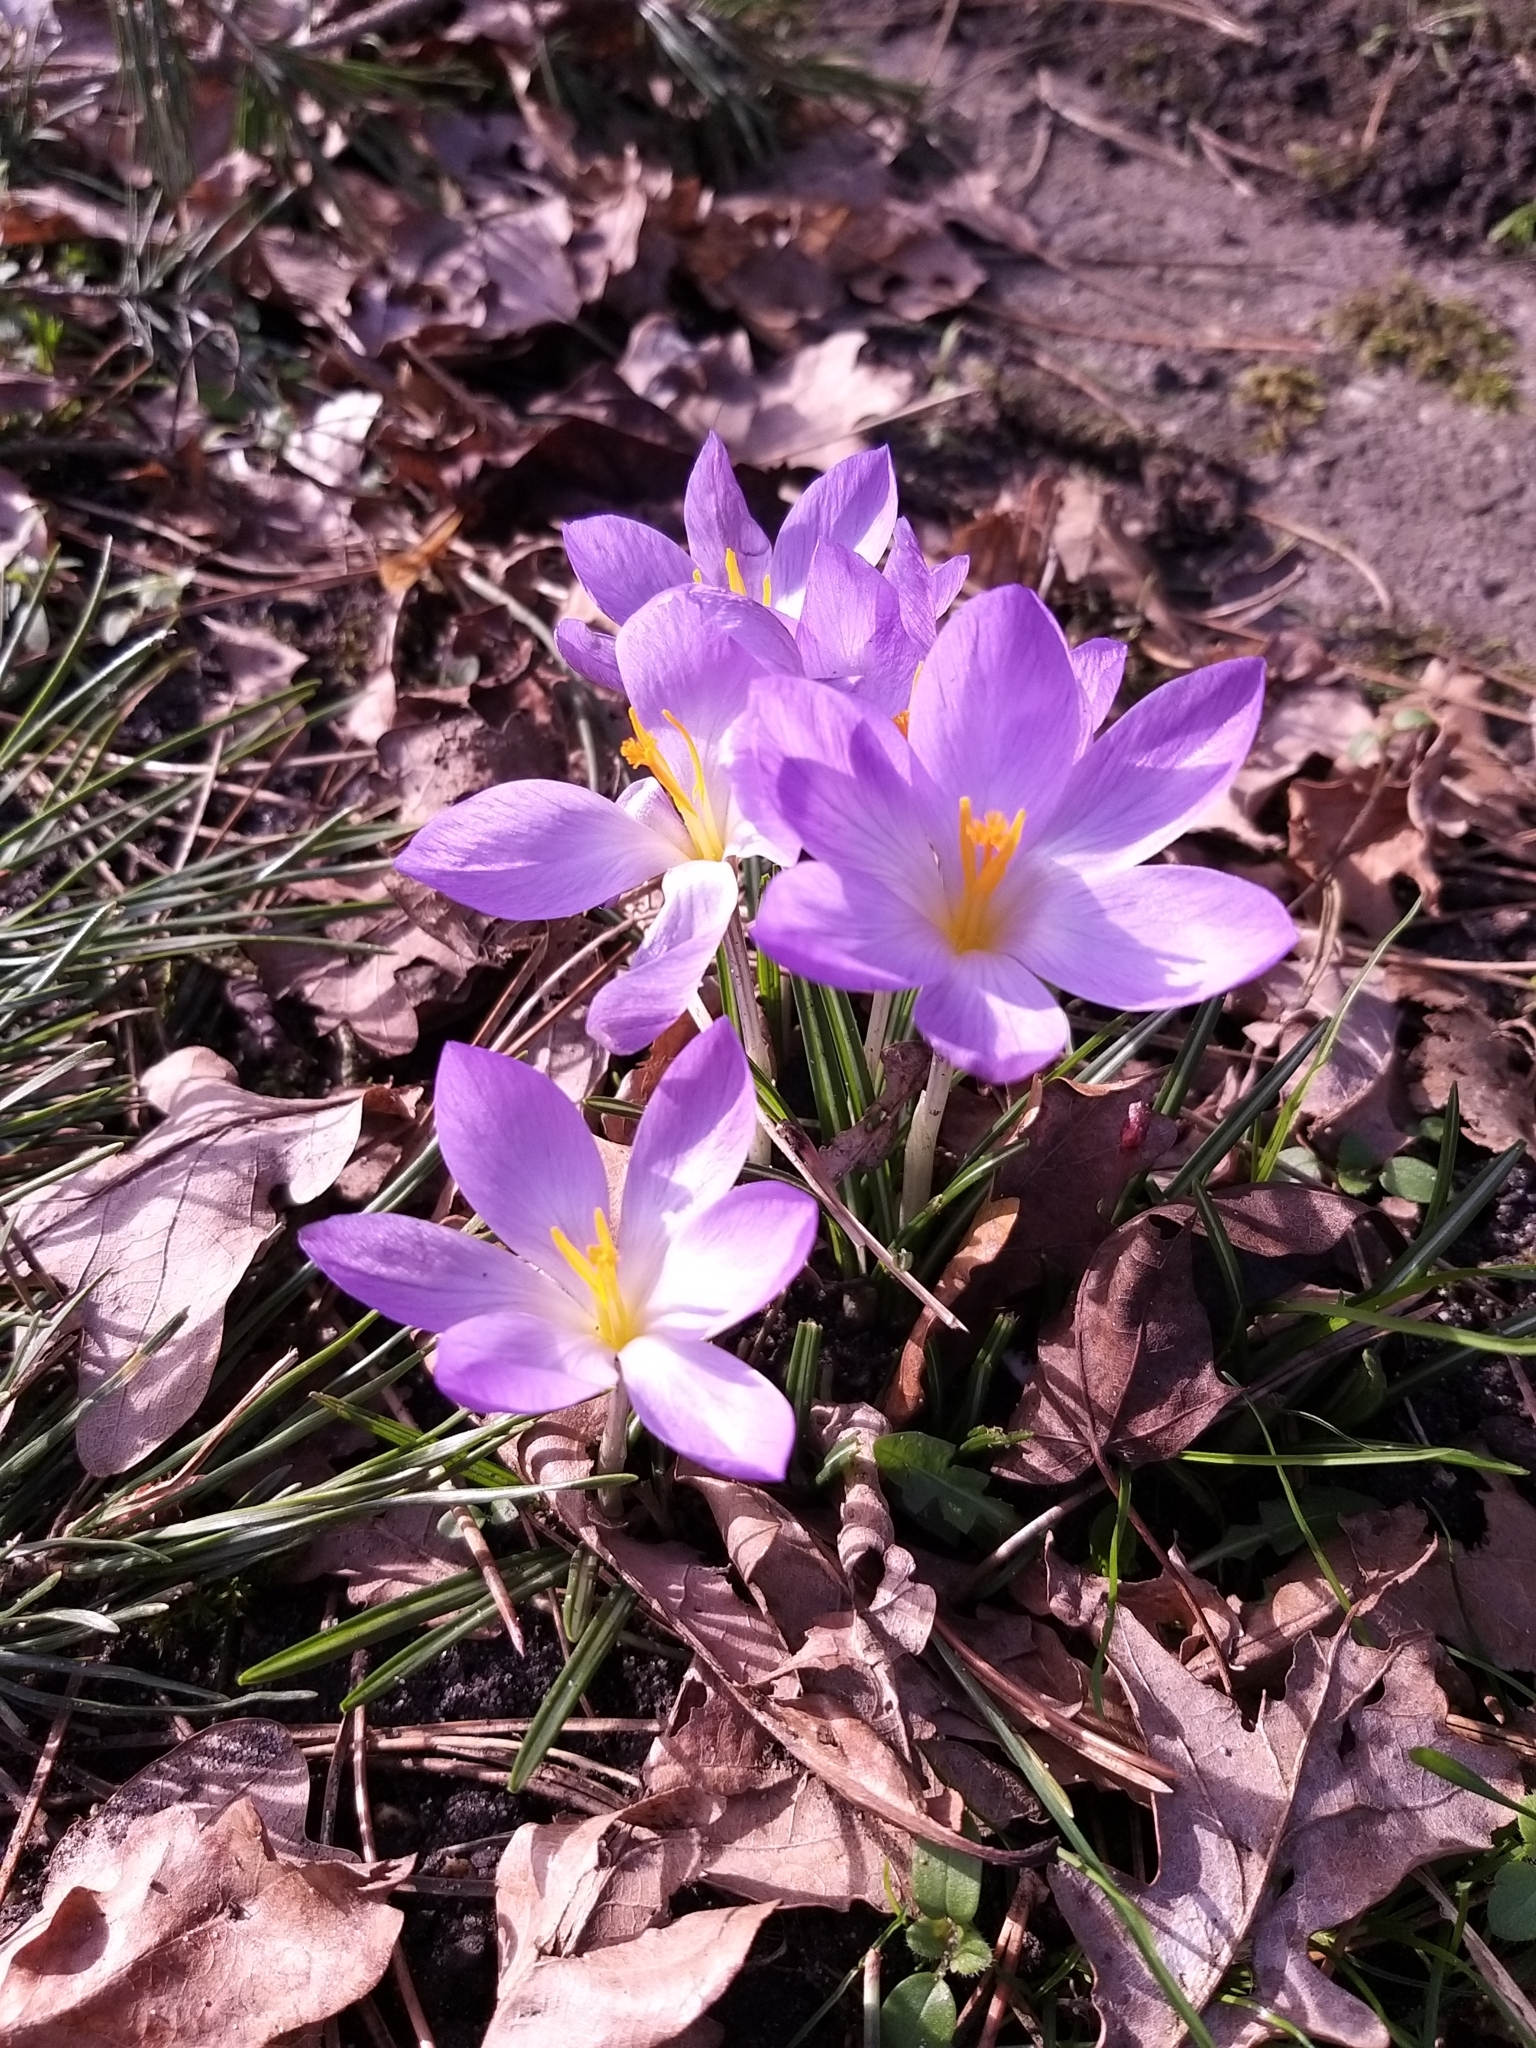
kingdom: Plantae
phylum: Tracheophyta
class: Liliopsida
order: Asparagales
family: Iridaceae
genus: Crocus
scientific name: Crocus tommasinianus
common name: Early crocus
